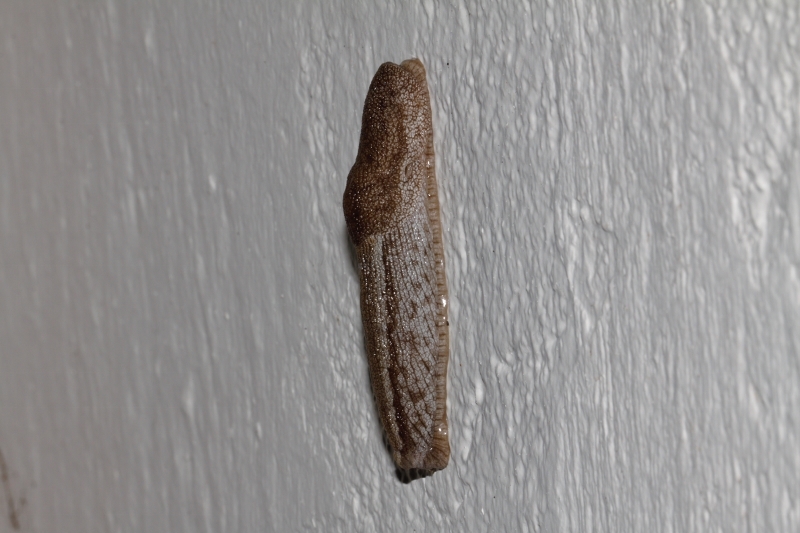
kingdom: Animalia
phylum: Mollusca
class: Gastropoda
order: Stylommatophora
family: Urocyclidae
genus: Urocyclus
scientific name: Urocyclus kirkii
